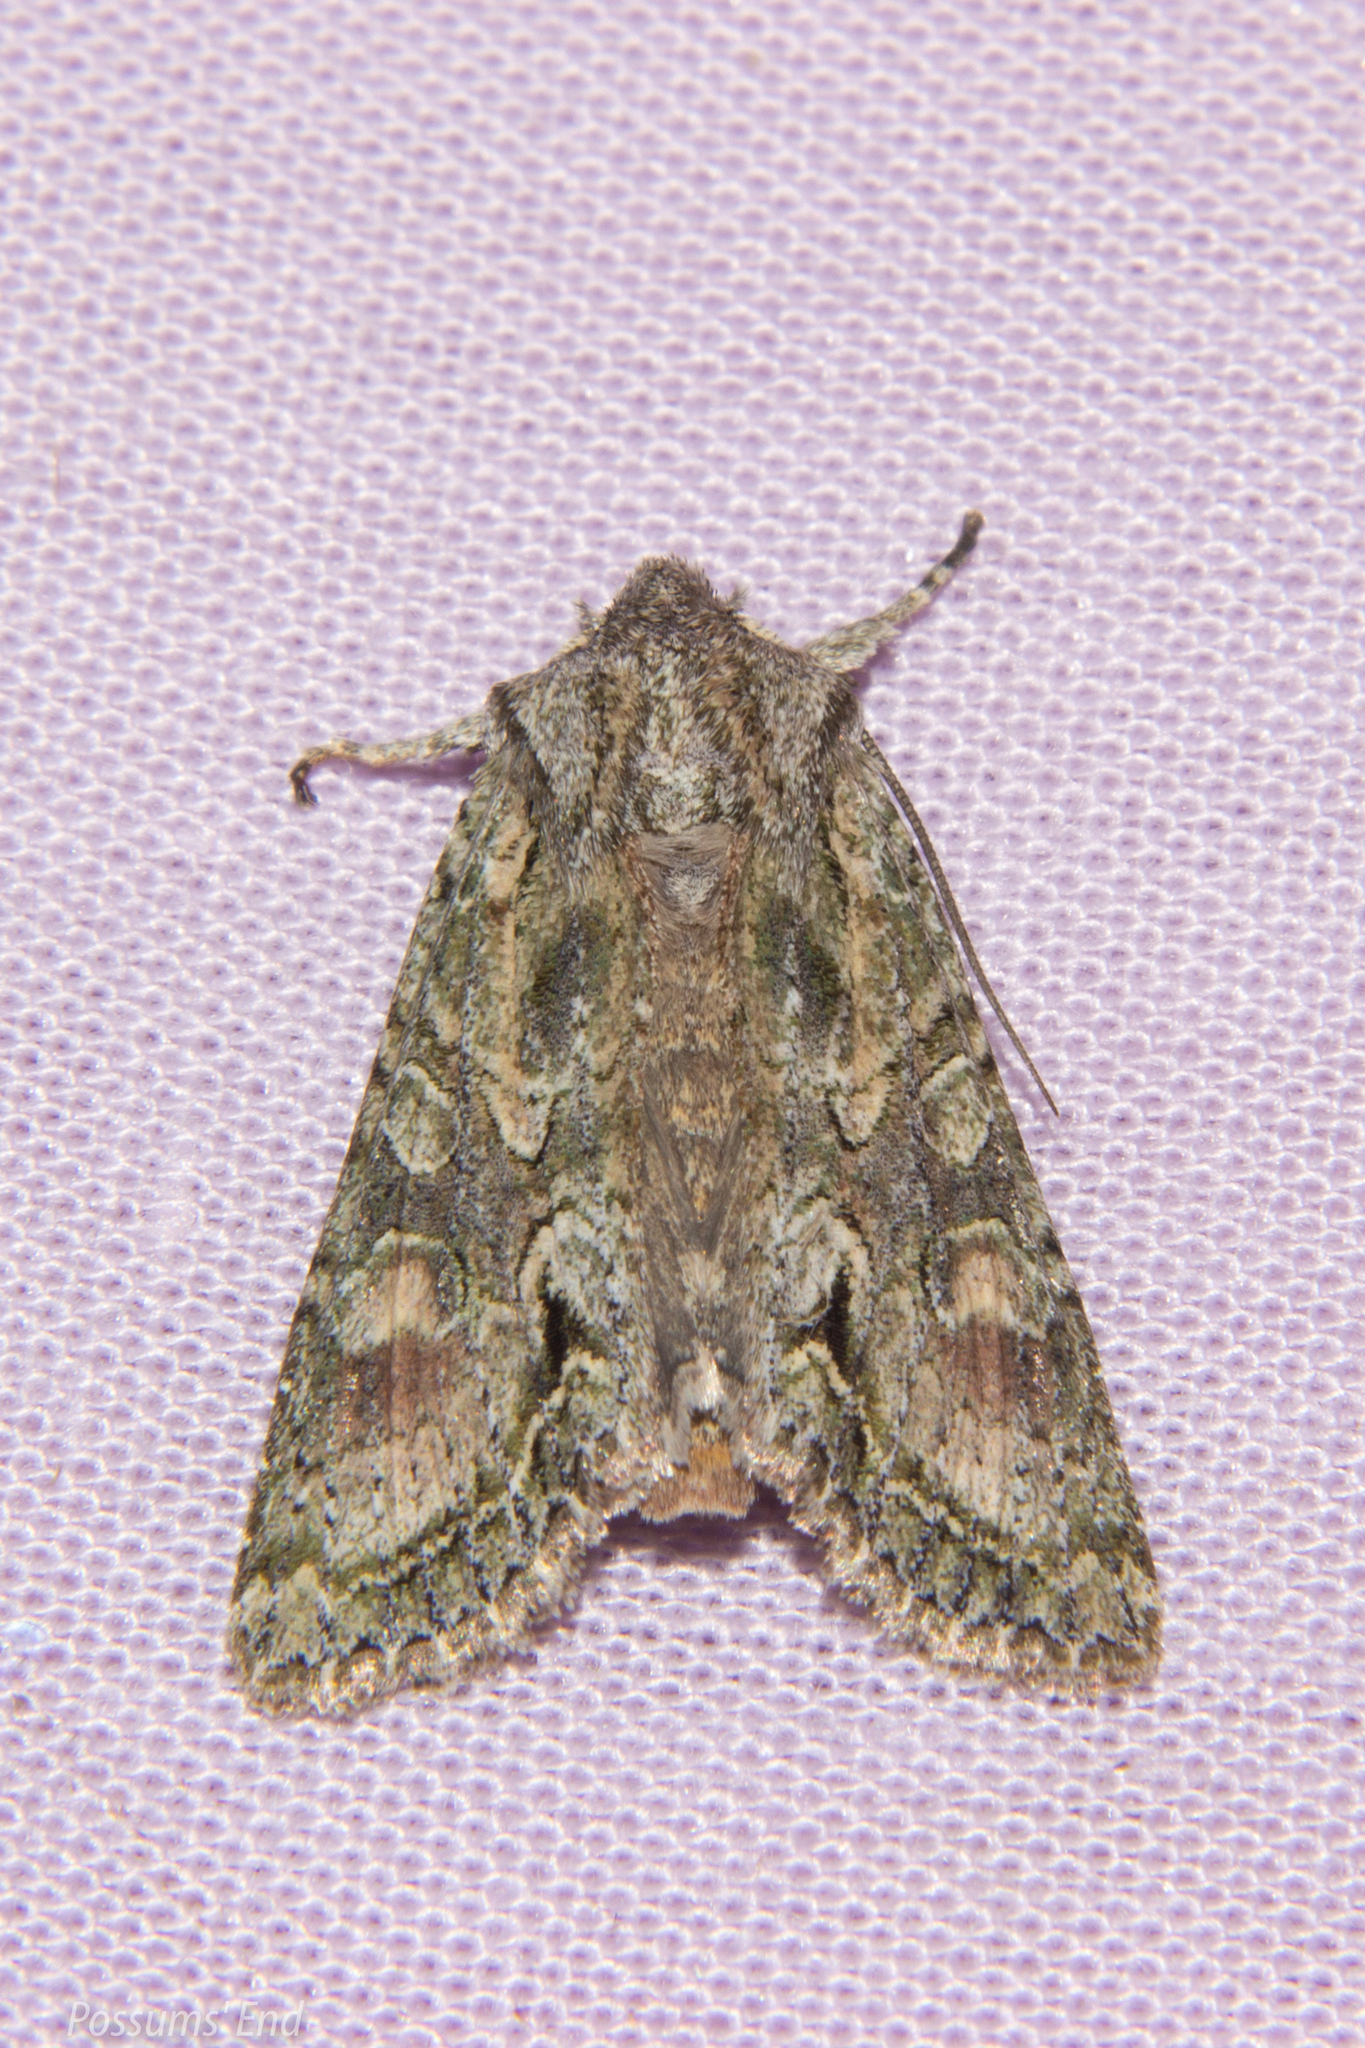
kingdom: Animalia
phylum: Arthropoda
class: Insecta
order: Lepidoptera
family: Noctuidae
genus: Ichneutica
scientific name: Ichneutica mutans
